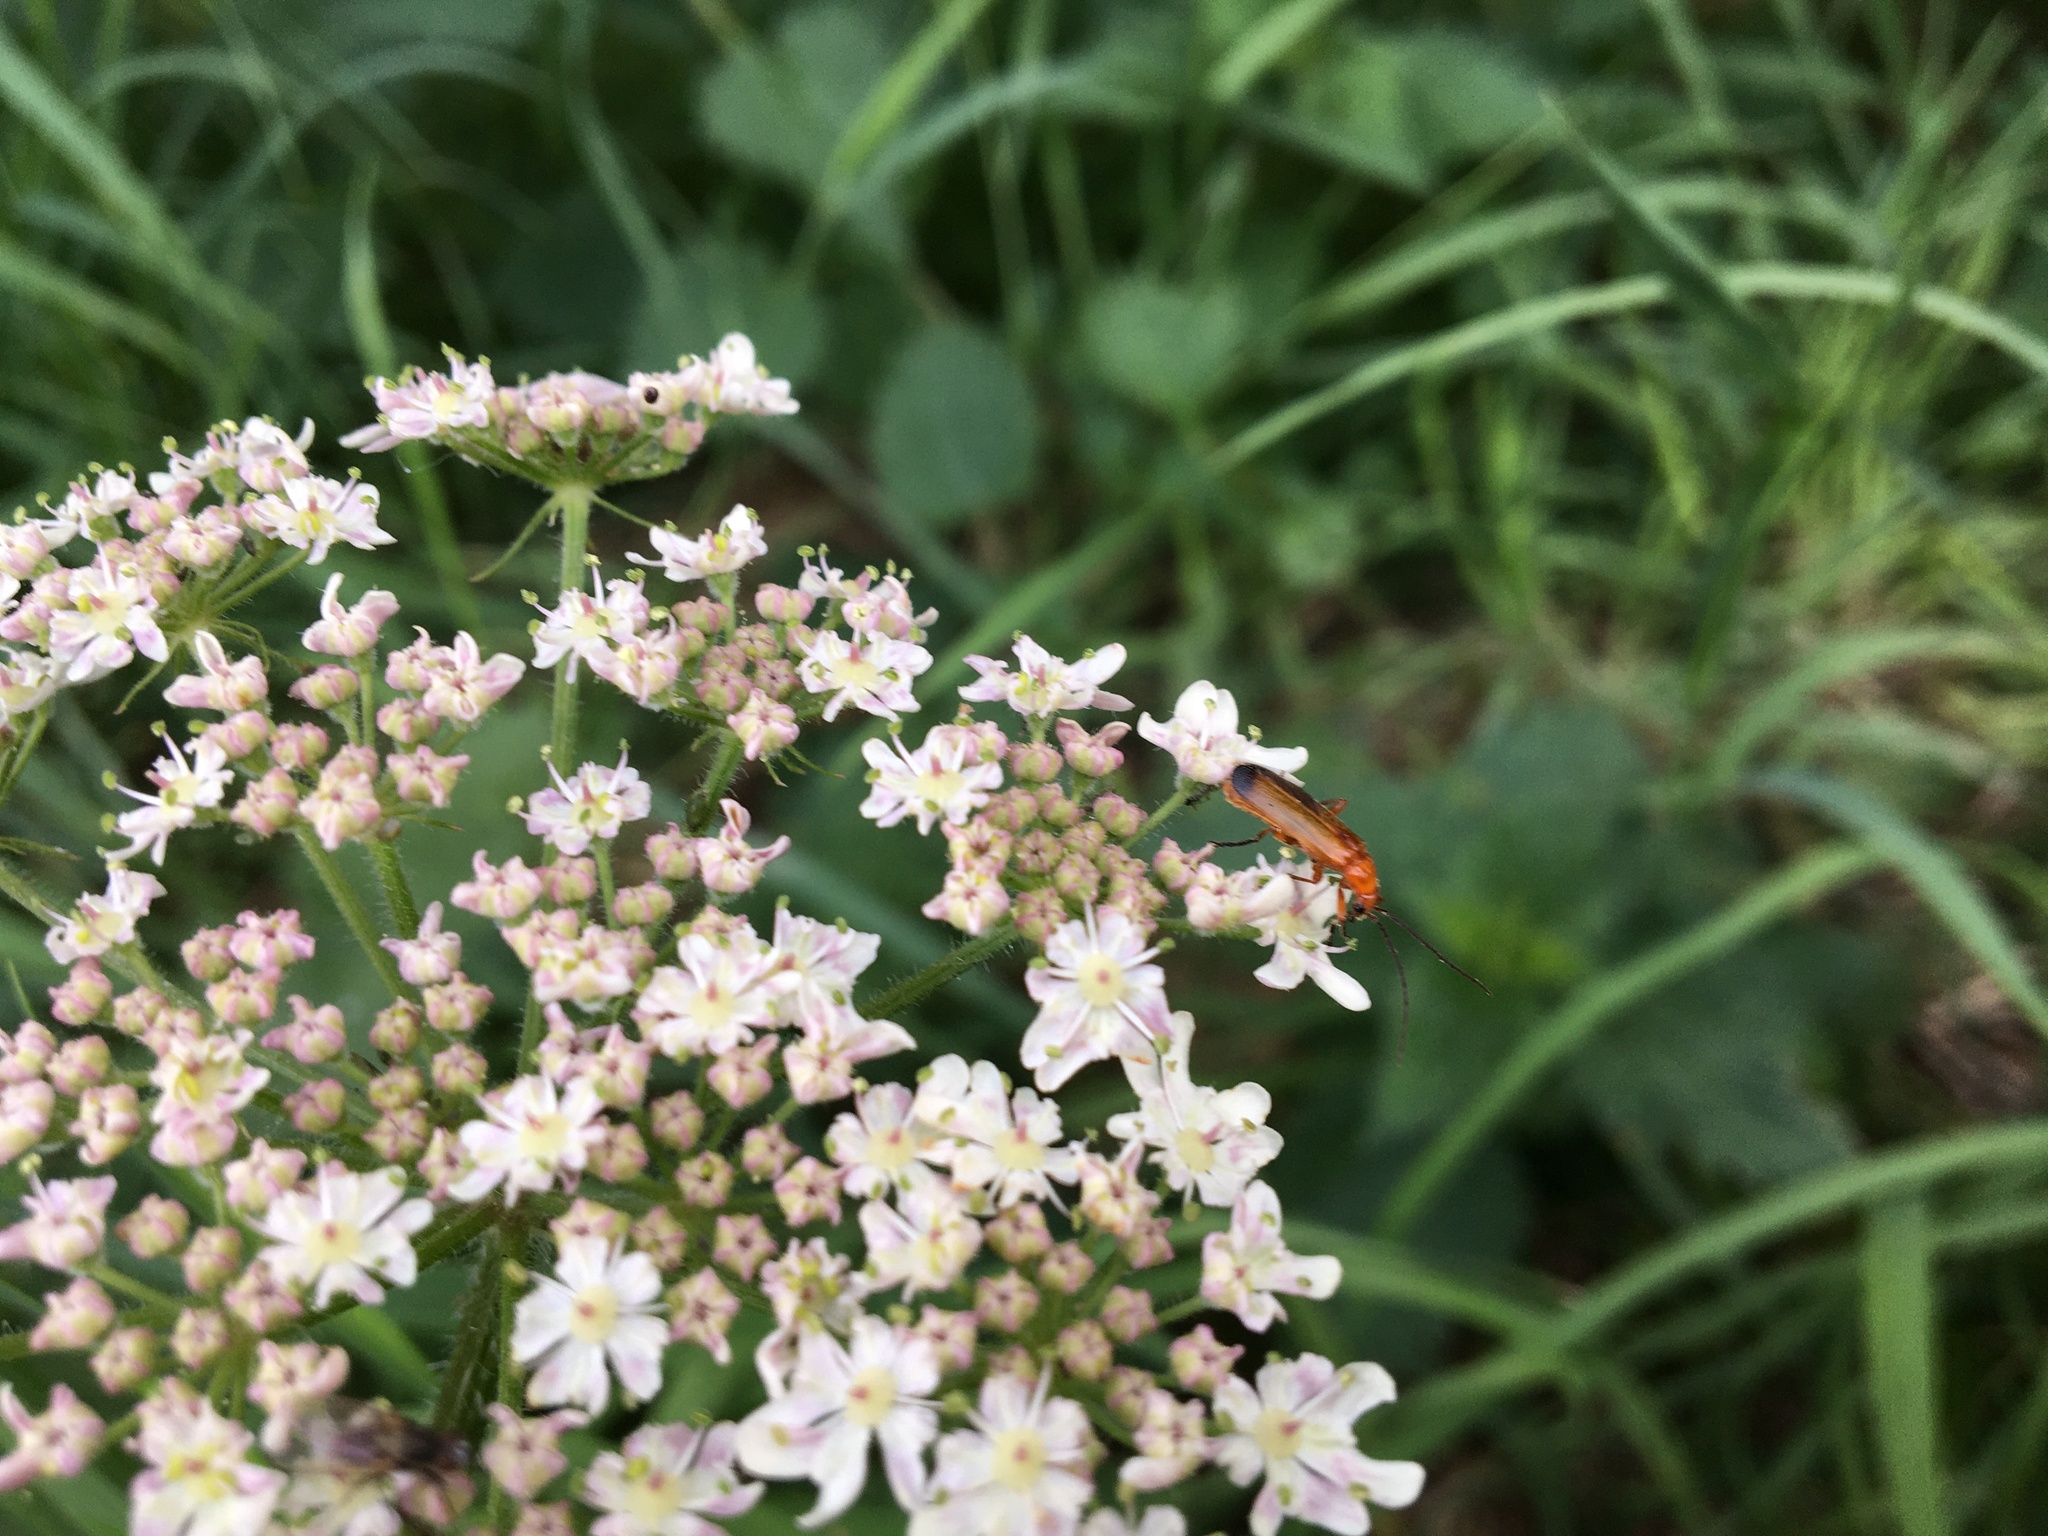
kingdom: Animalia
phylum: Arthropoda
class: Insecta
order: Coleoptera
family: Cantharidae
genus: Rhagonycha
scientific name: Rhagonycha fulva
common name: Common red soldier beetle
